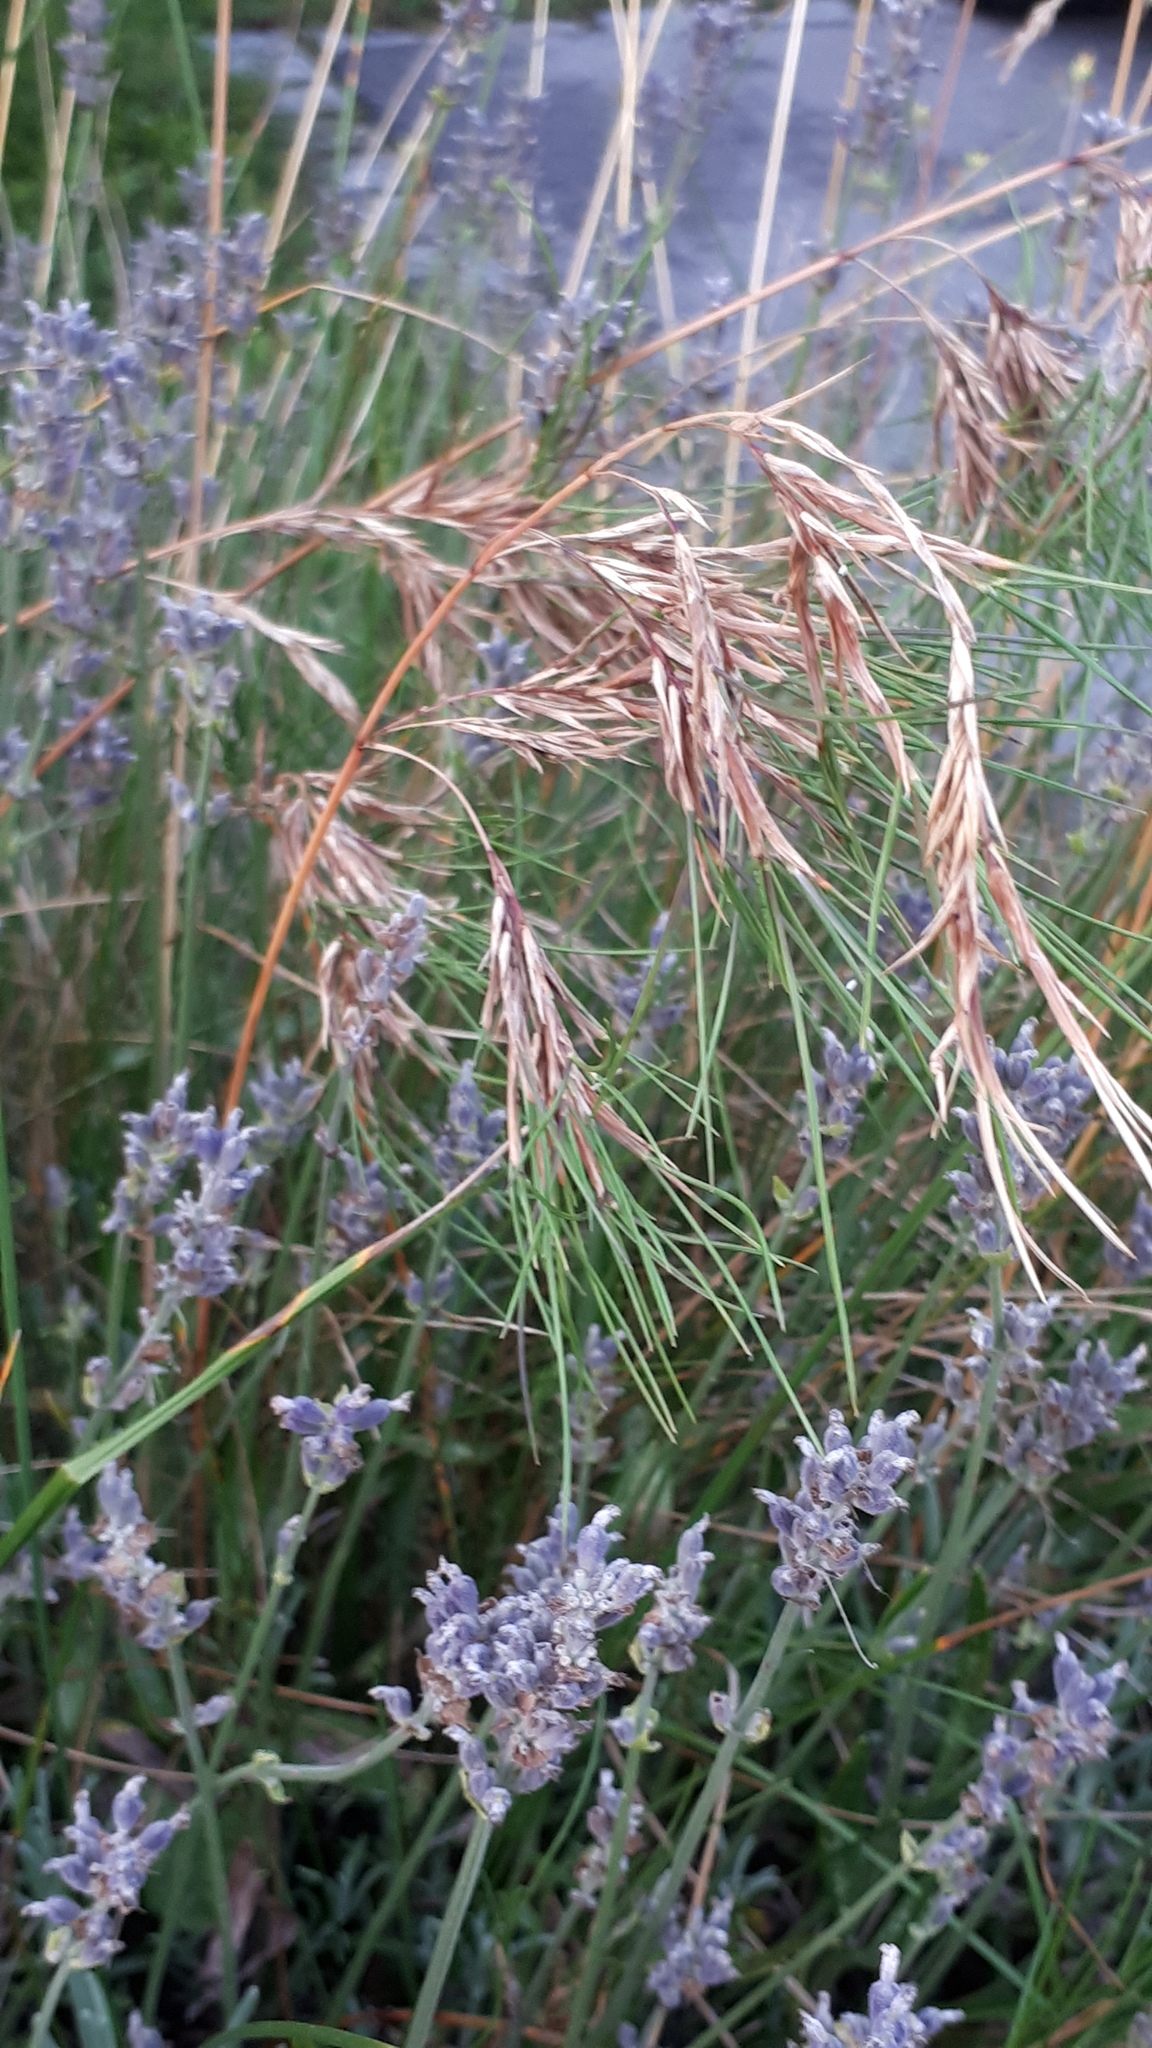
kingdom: Plantae
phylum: Tracheophyta
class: Liliopsida
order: Poales
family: Poaceae
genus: Poa
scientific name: Poa bulbosa
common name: Bulbous bluegrass
